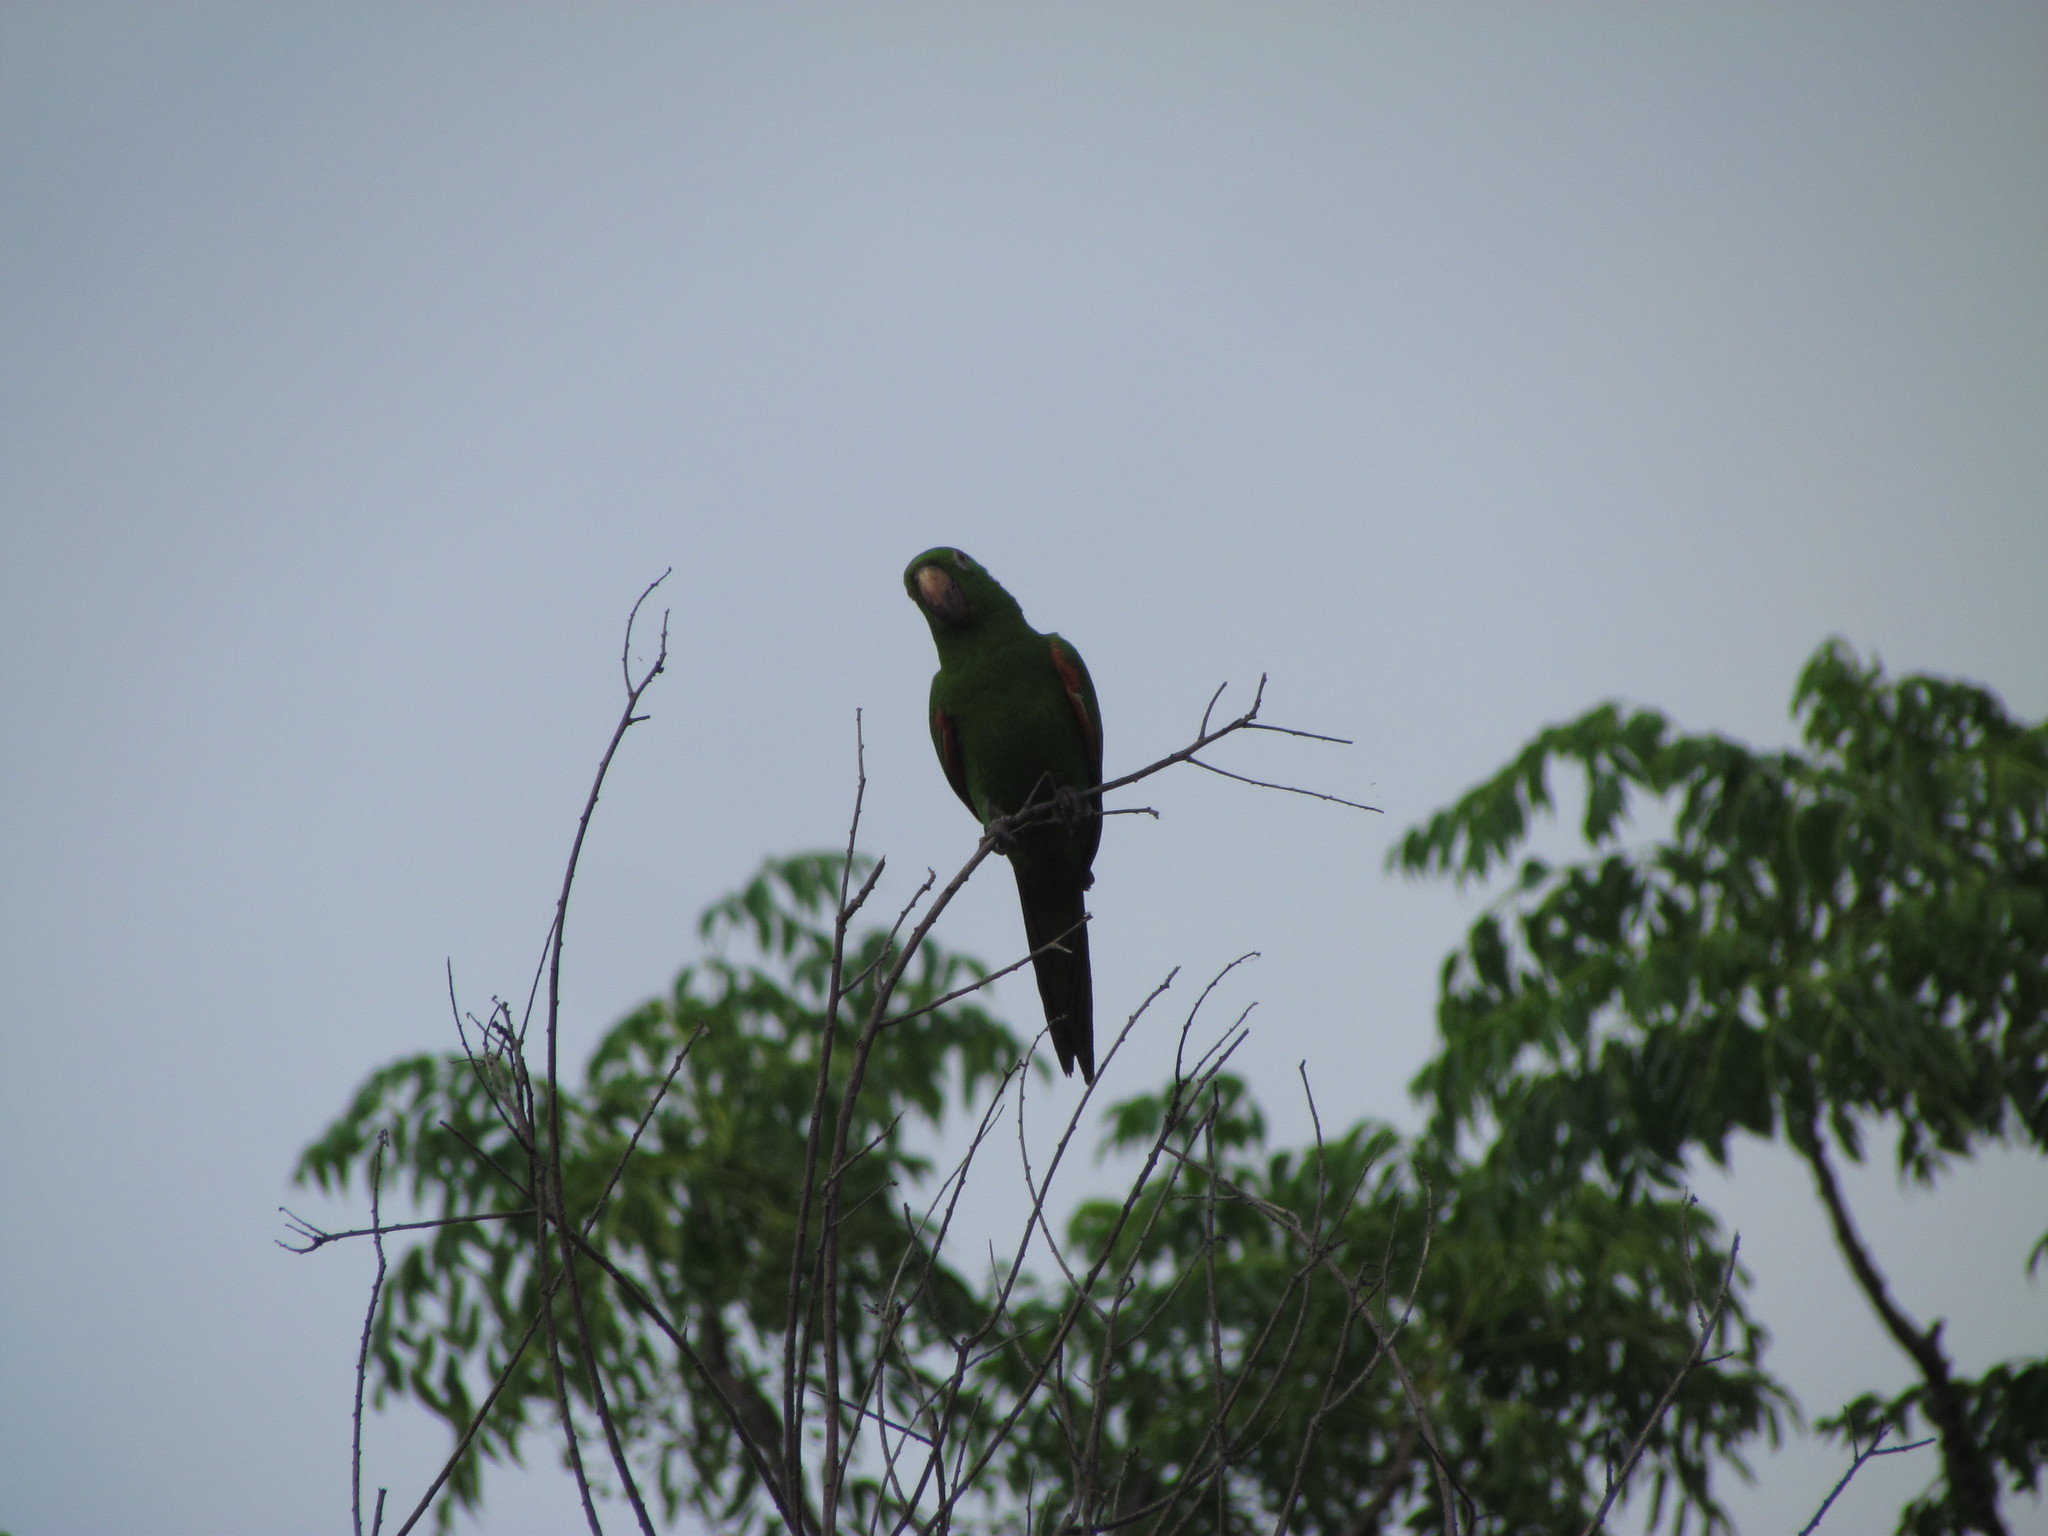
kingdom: Animalia
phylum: Chordata
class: Aves
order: Psittaciformes
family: Psittacidae
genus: Aratinga
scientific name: Aratinga leucophthalma
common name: White-eyed parakeet
